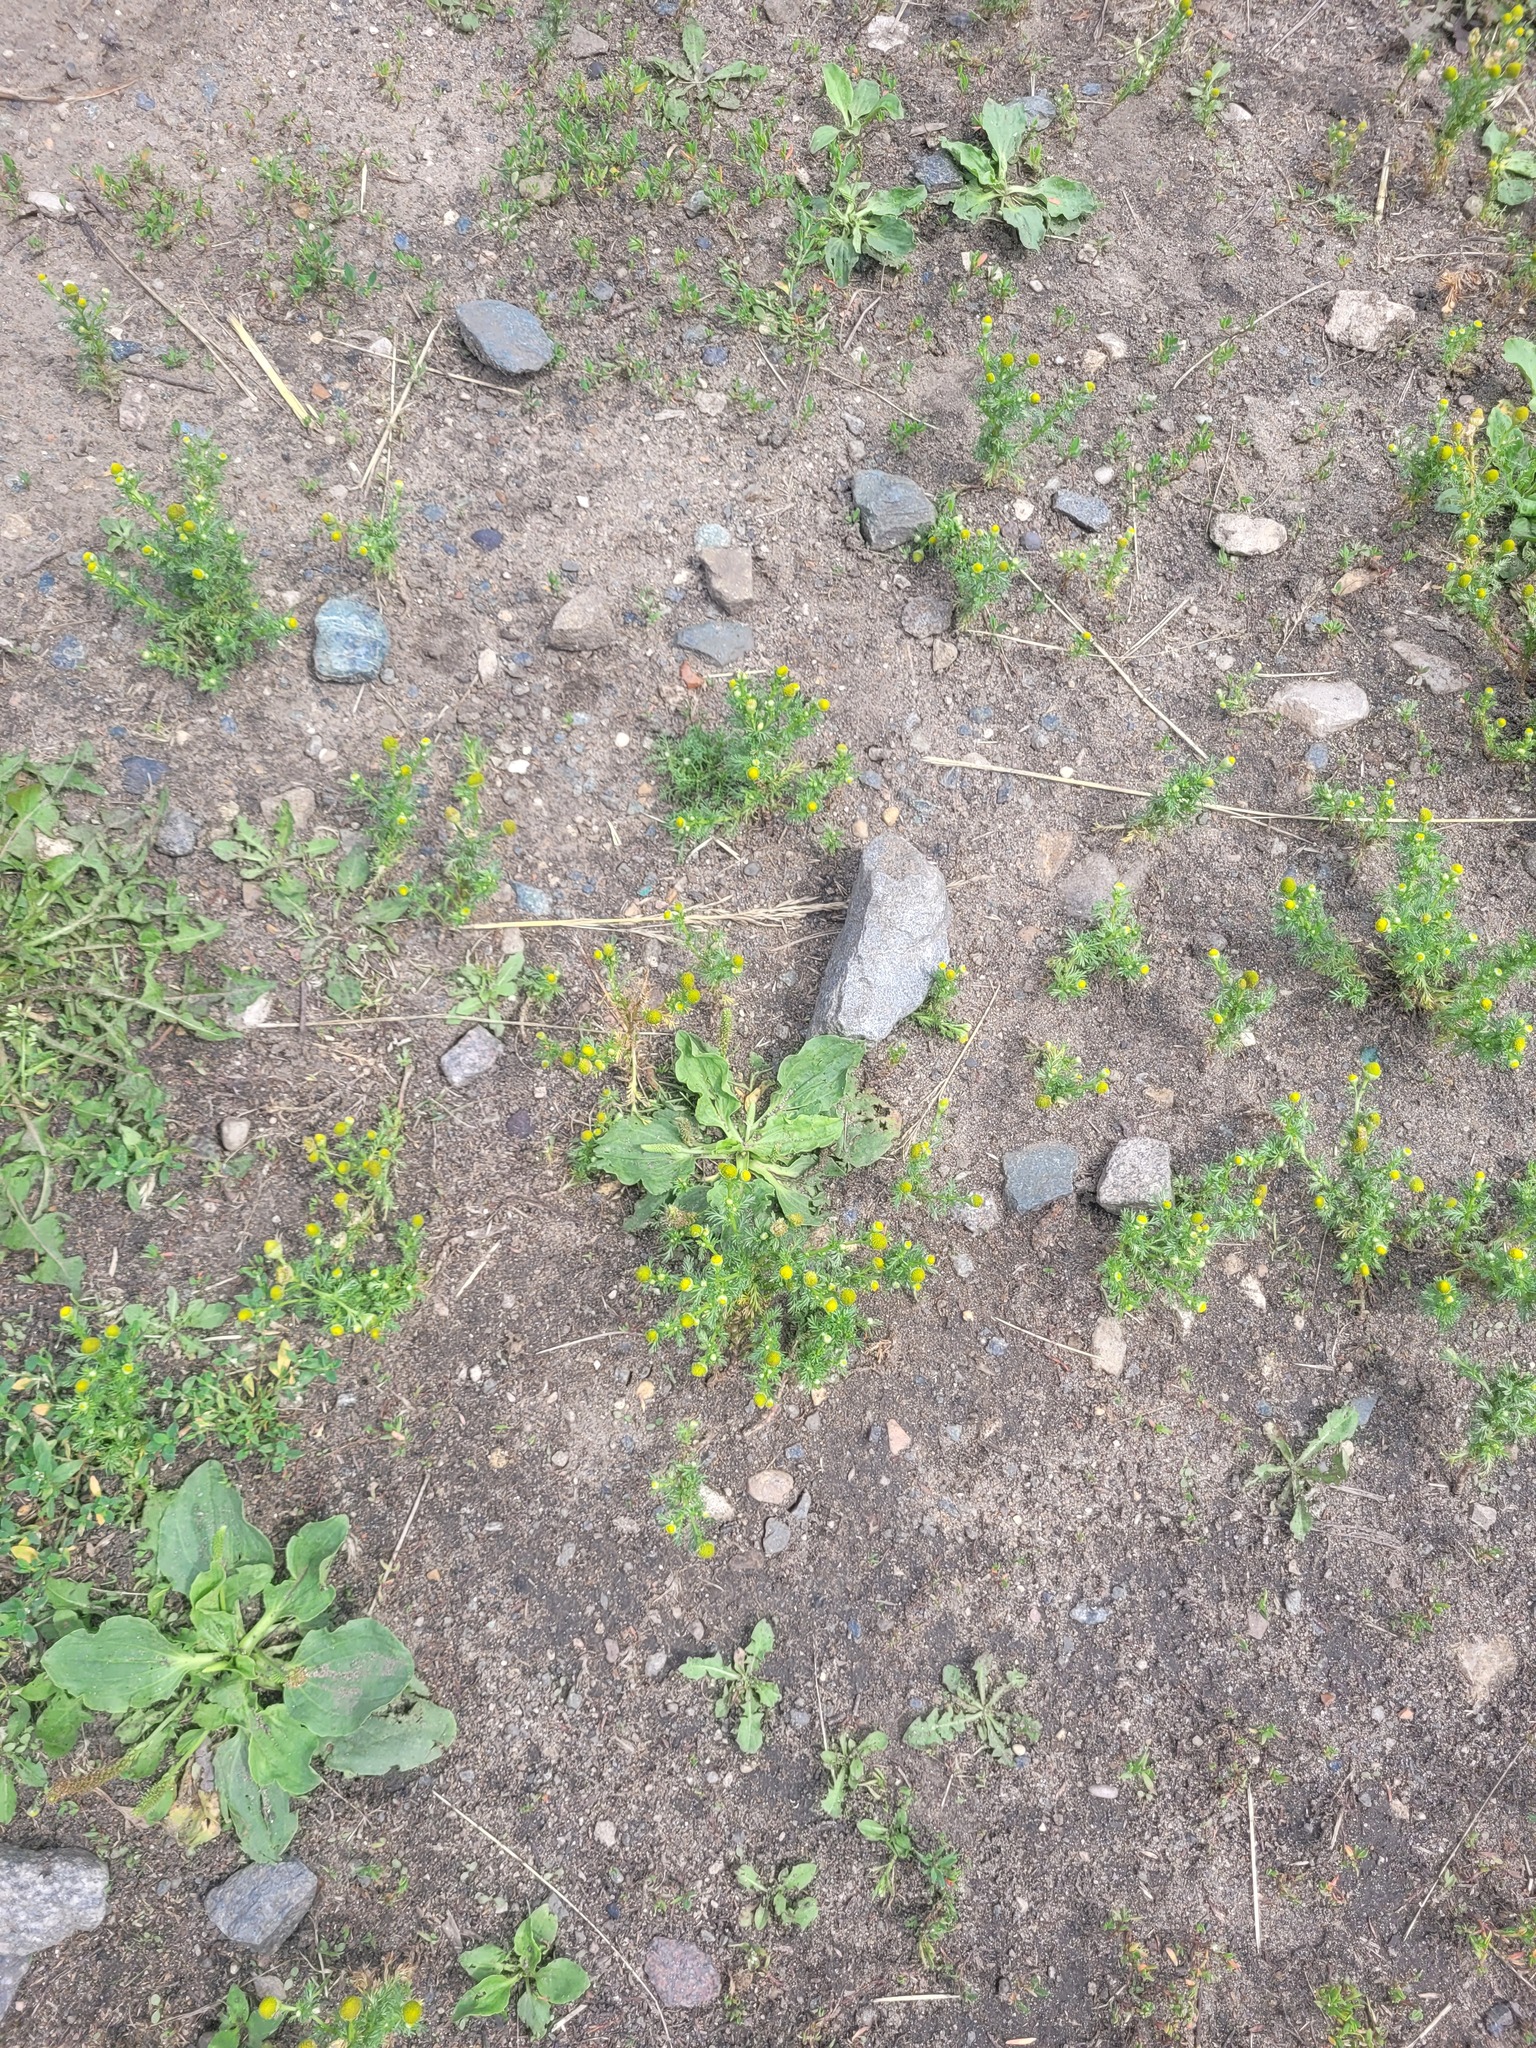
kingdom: Plantae
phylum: Tracheophyta
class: Magnoliopsida
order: Asterales
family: Asteraceae
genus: Matricaria
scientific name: Matricaria discoidea
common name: Disc mayweed
